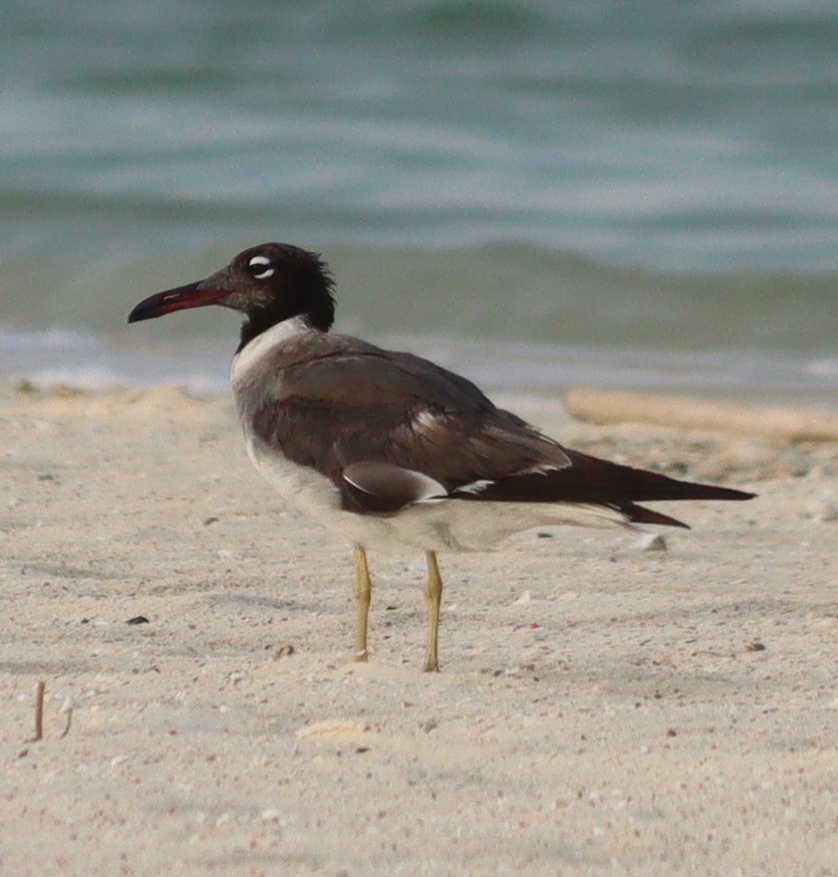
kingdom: Animalia
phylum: Chordata
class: Aves
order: Charadriiformes
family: Laridae
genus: Ichthyaetus
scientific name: Ichthyaetus leucophthalmus
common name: White-eyed gull
